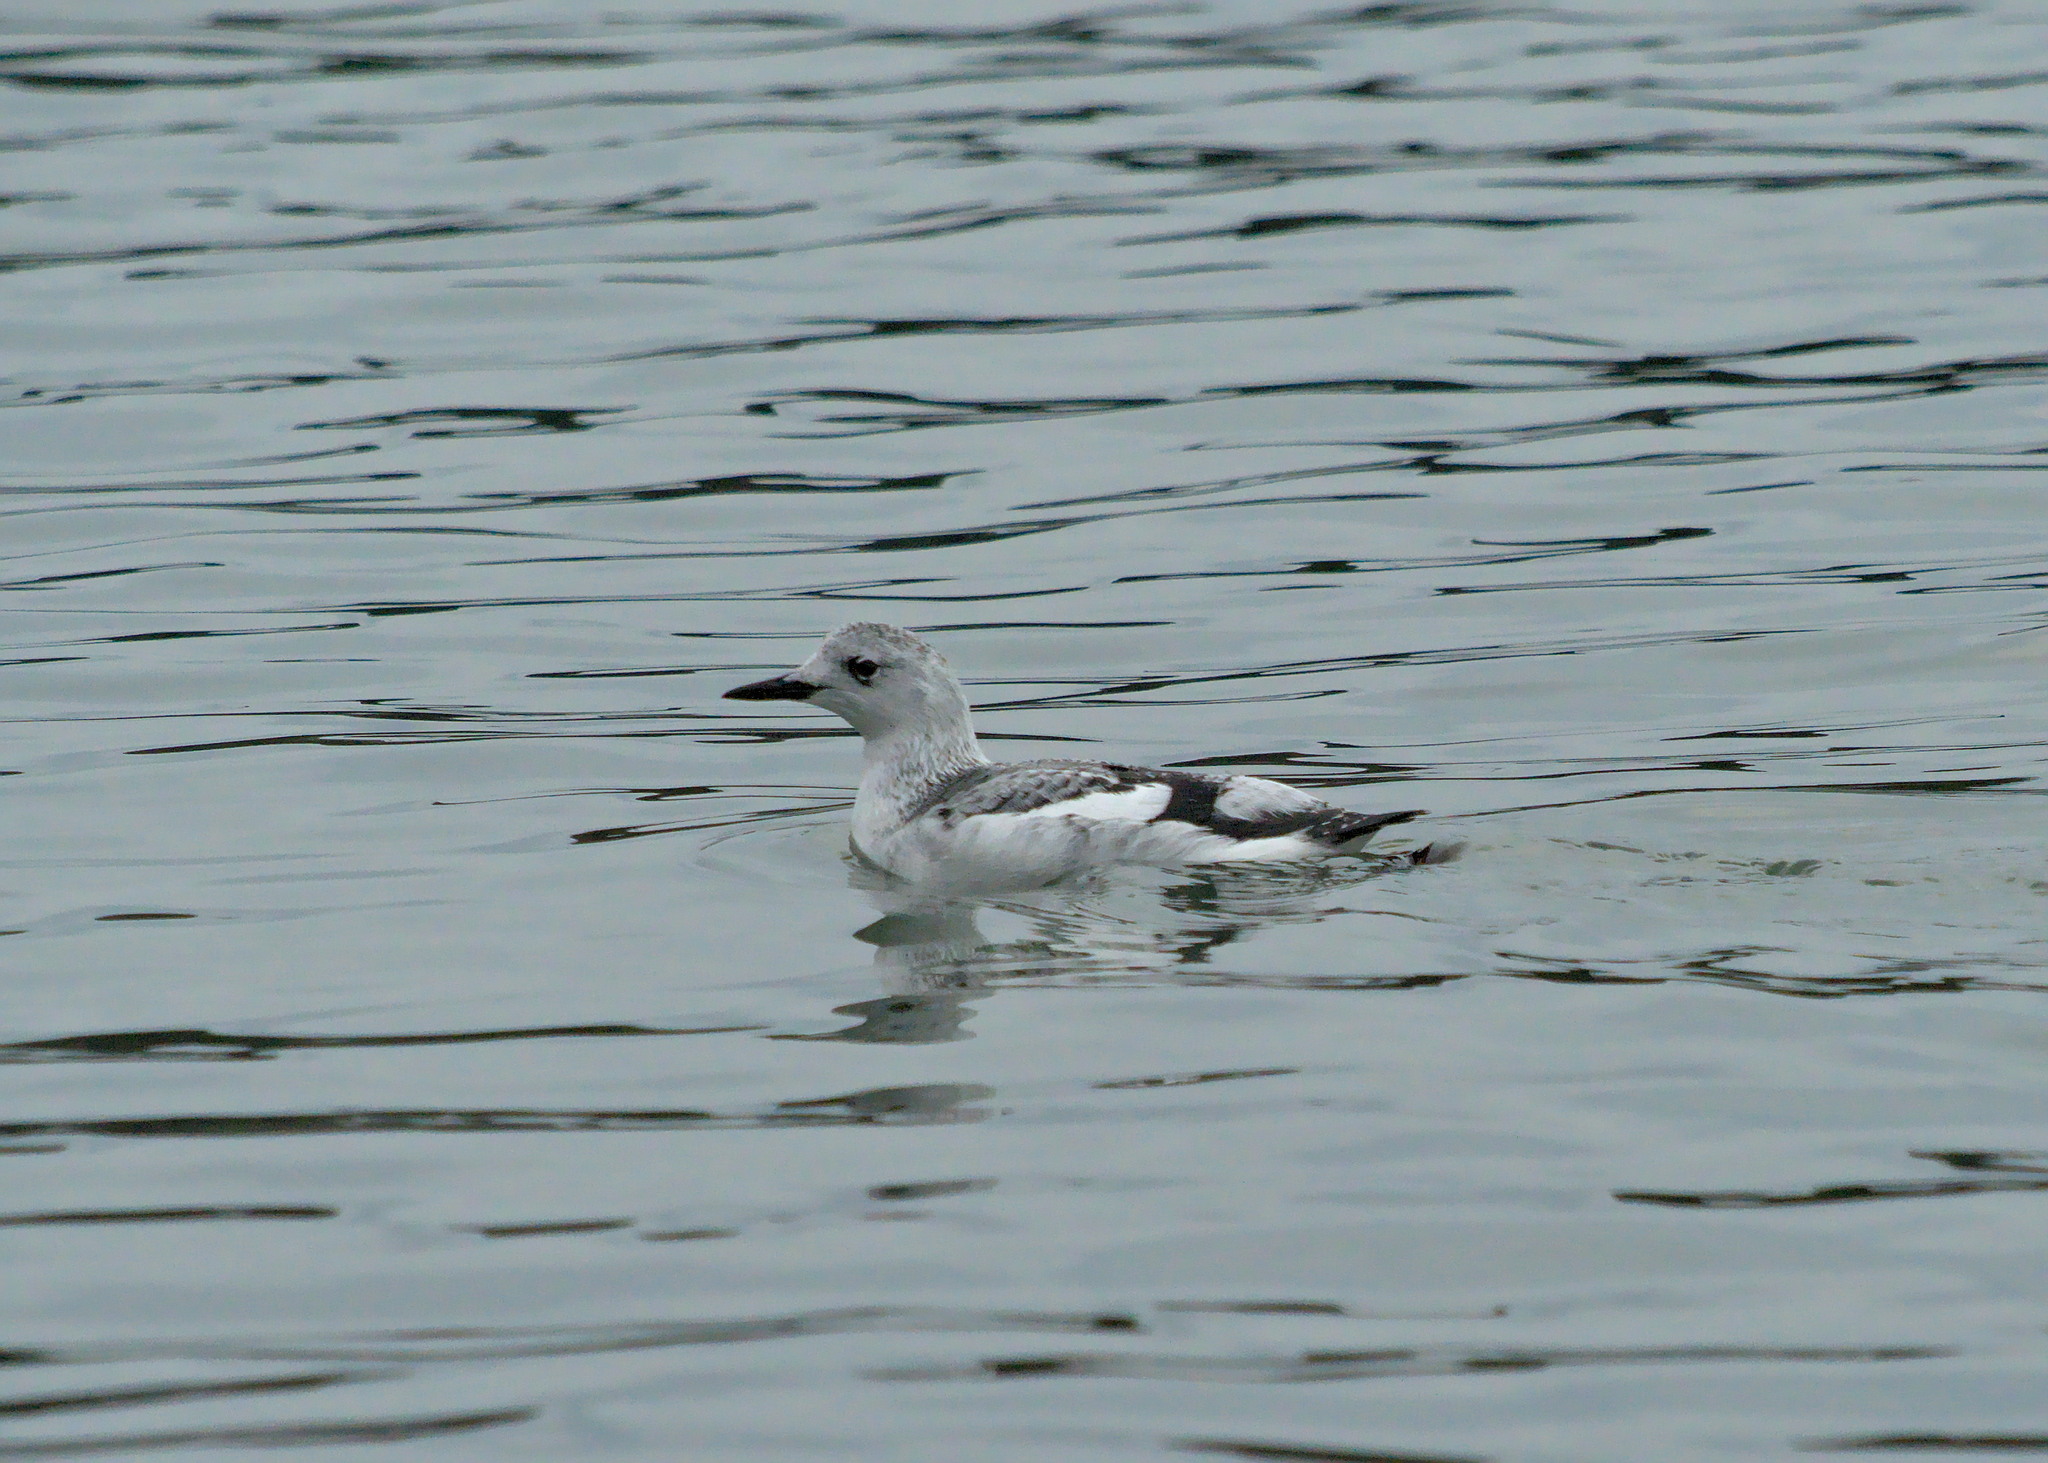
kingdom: Animalia
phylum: Chordata
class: Aves
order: Charadriiformes
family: Alcidae
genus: Cepphus
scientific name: Cepphus grylle
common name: Black guillemot
